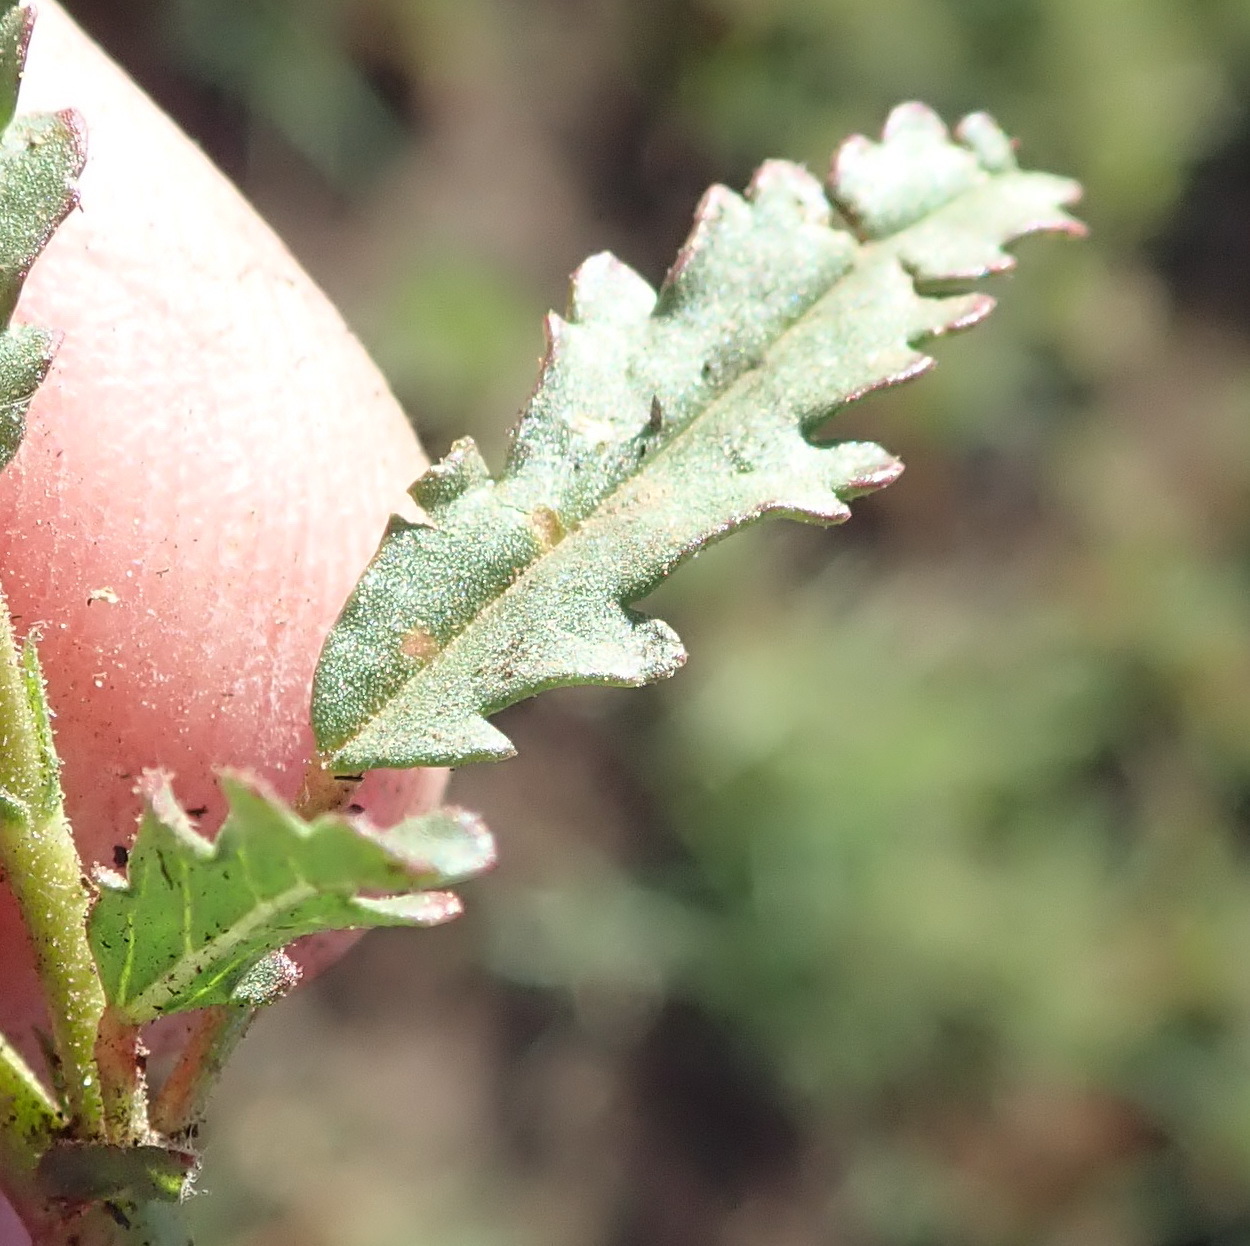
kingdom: Plantae
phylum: Tracheophyta
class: Magnoliopsida
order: Malvales
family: Malvaceae
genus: Hermannia
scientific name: Hermannia coccocarpa
